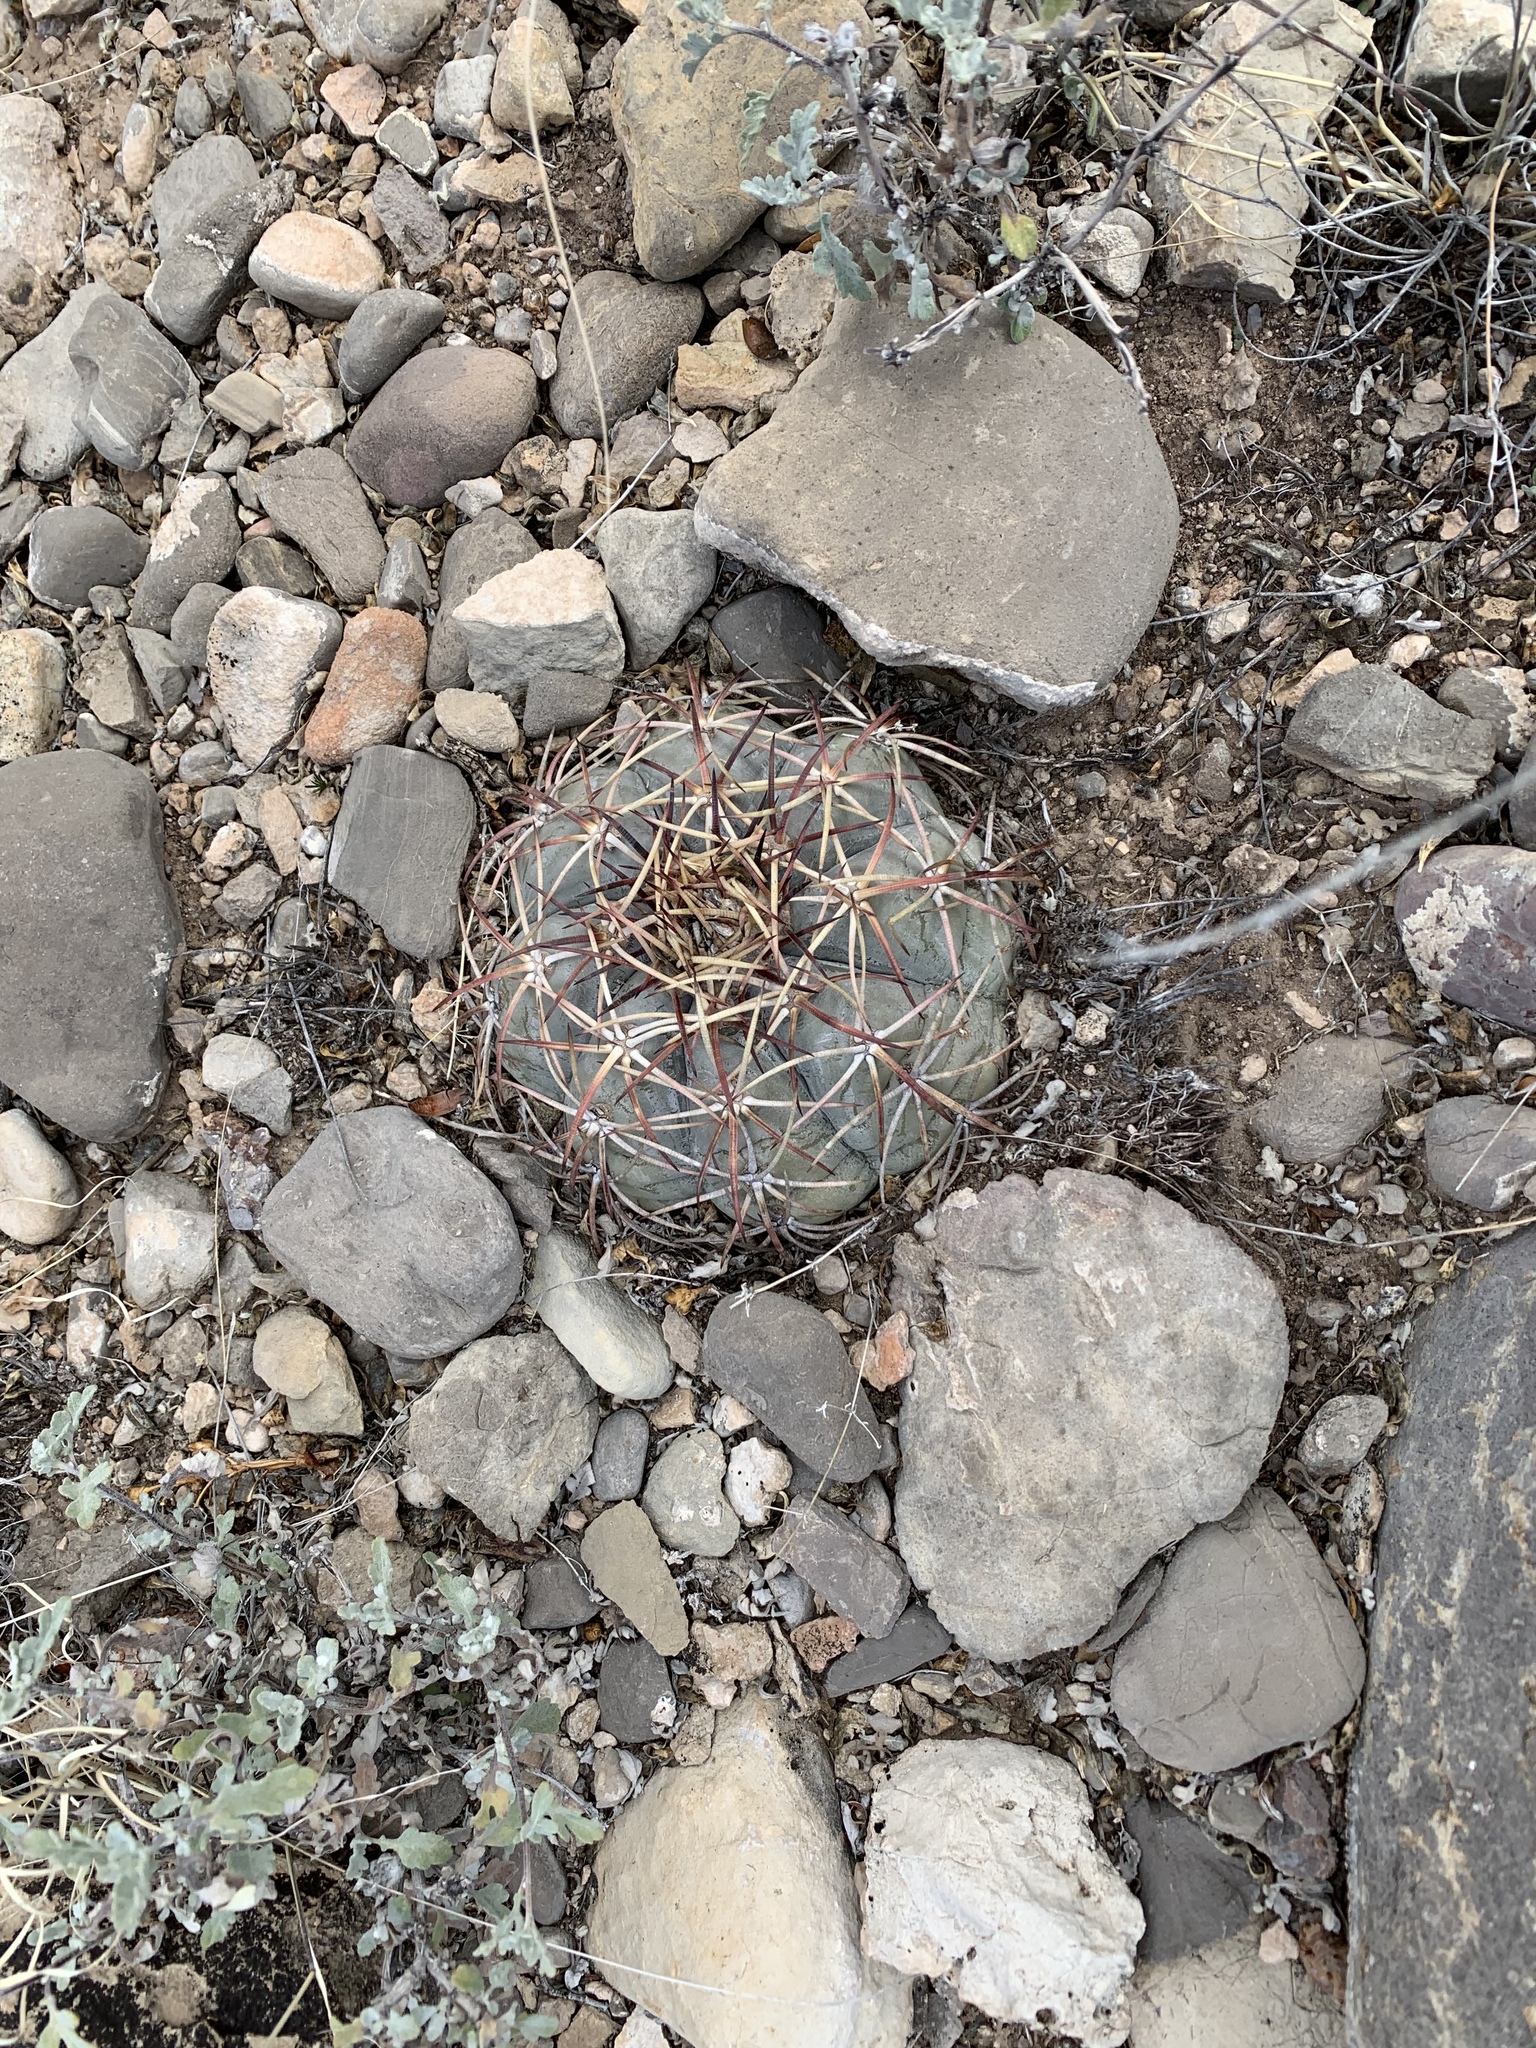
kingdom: Plantae
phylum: Tracheophyta
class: Magnoliopsida
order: Caryophyllales
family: Cactaceae
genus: Echinocactus
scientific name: Echinocactus horizonthalonius
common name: Devilshead
